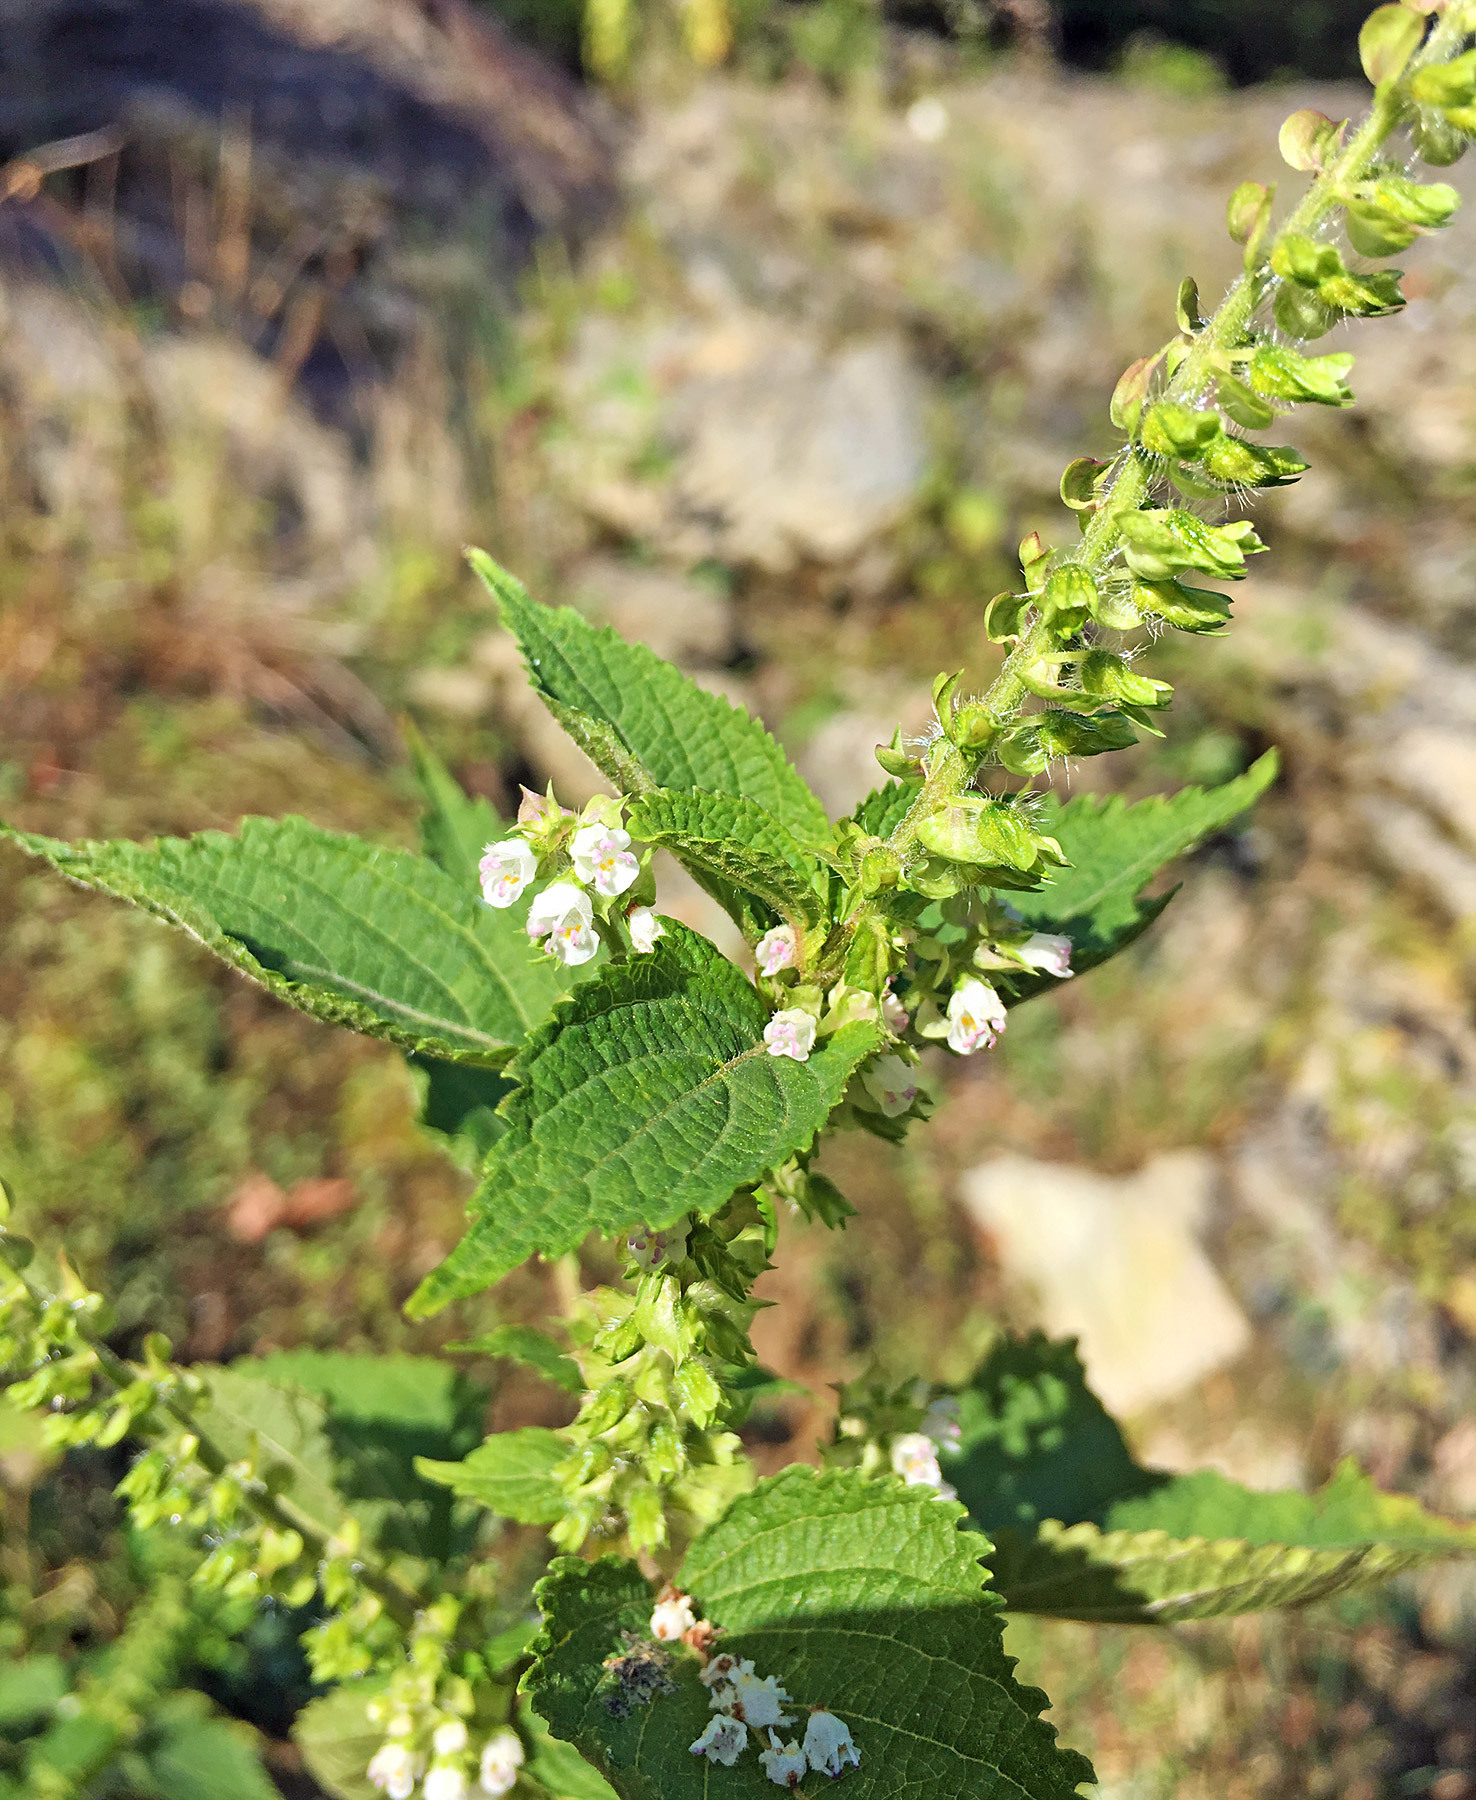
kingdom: Plantae
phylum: Tracheophyta
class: Magnoliopsida
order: Lamiales
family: Lamiaceae
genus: Perilla
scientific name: Perilla frutescens
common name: Perilla
